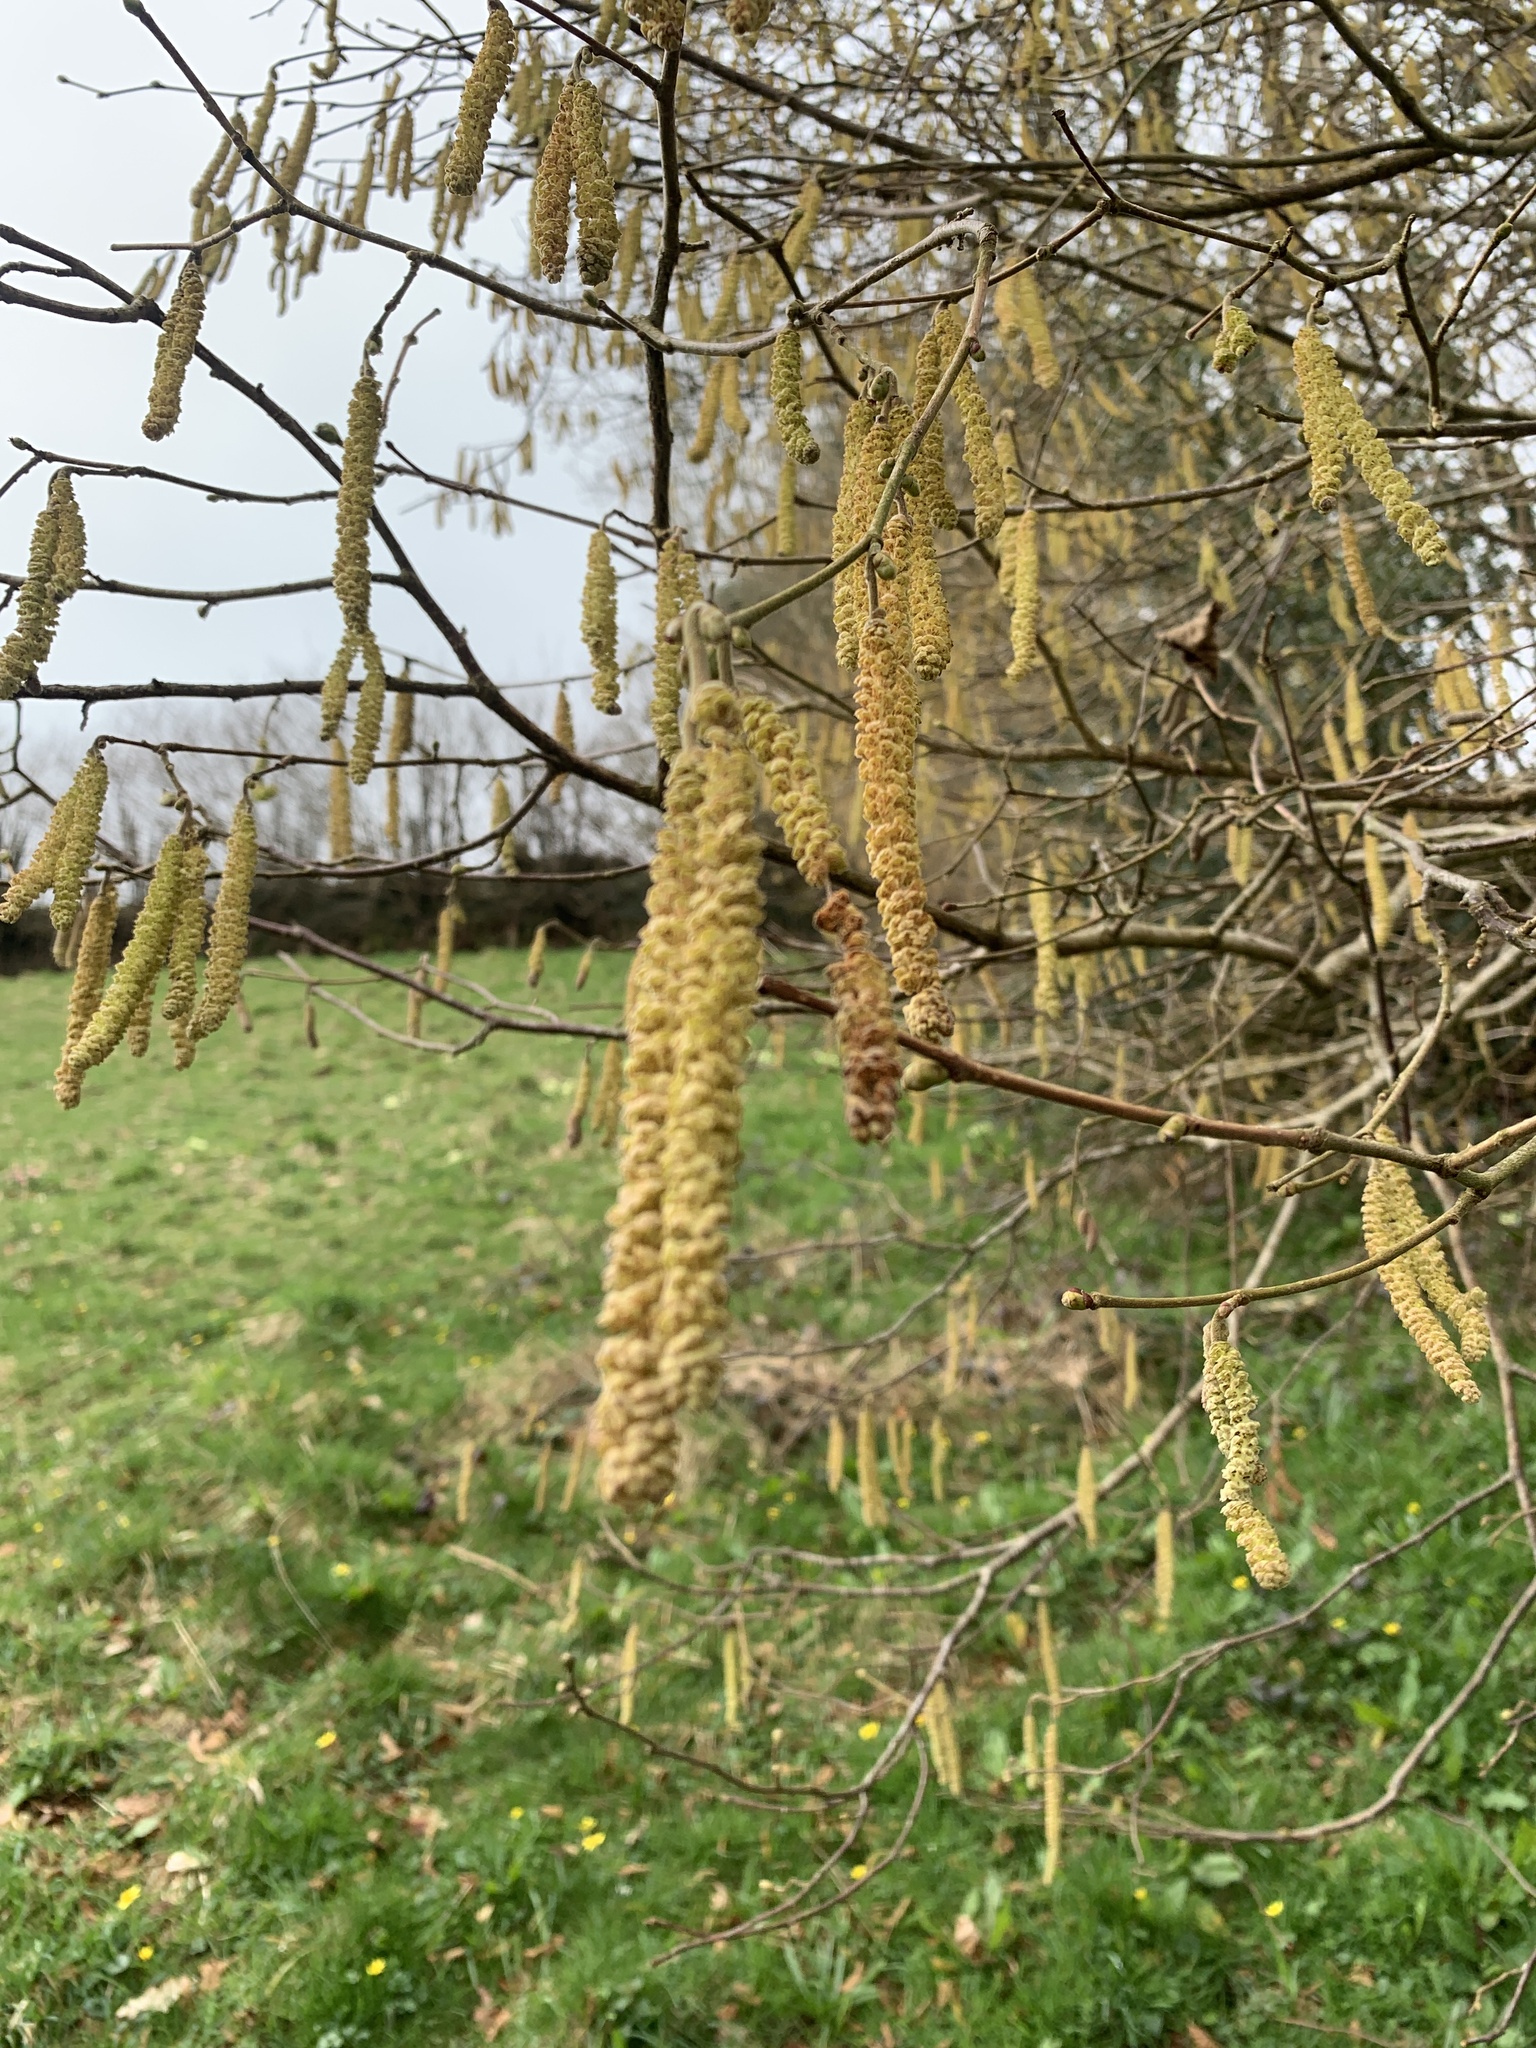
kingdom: Plantae
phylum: Tracheophyta
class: Magnoliopsida
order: Fagales
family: Betulaceae
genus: Corylus
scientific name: Corylus avellana
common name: European hazel
